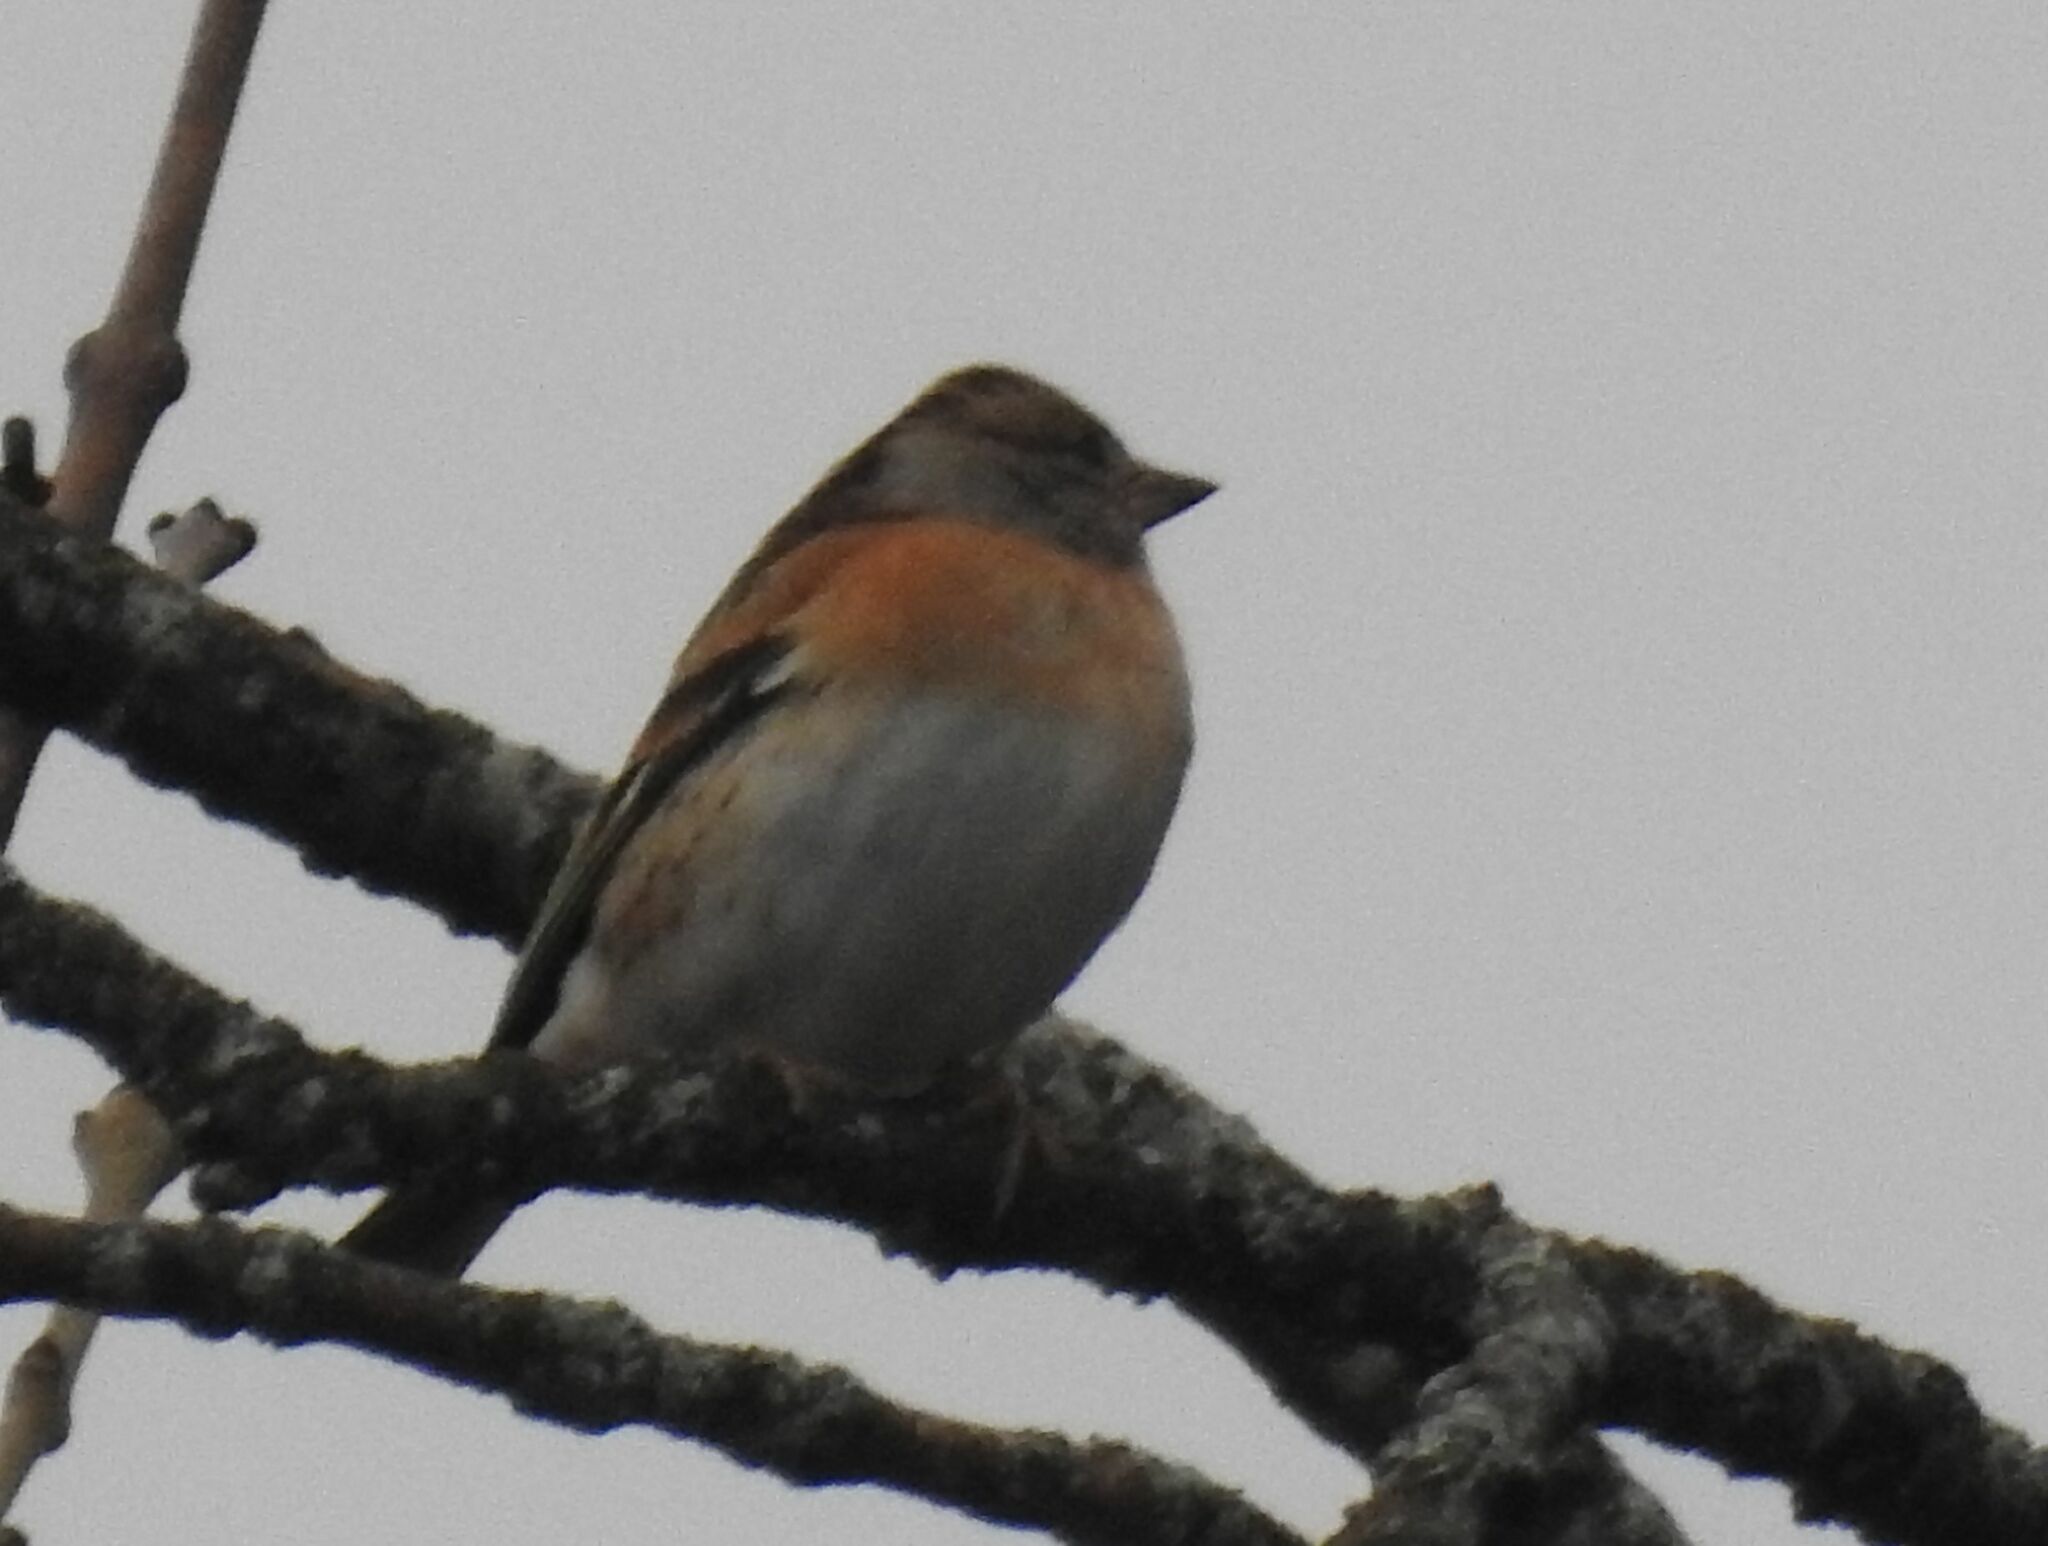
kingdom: Animalia
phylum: Chordata
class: Aves
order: Passeriformes
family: Fringillidae
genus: Fringilla
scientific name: Fringilla montifringilla
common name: Brambling
